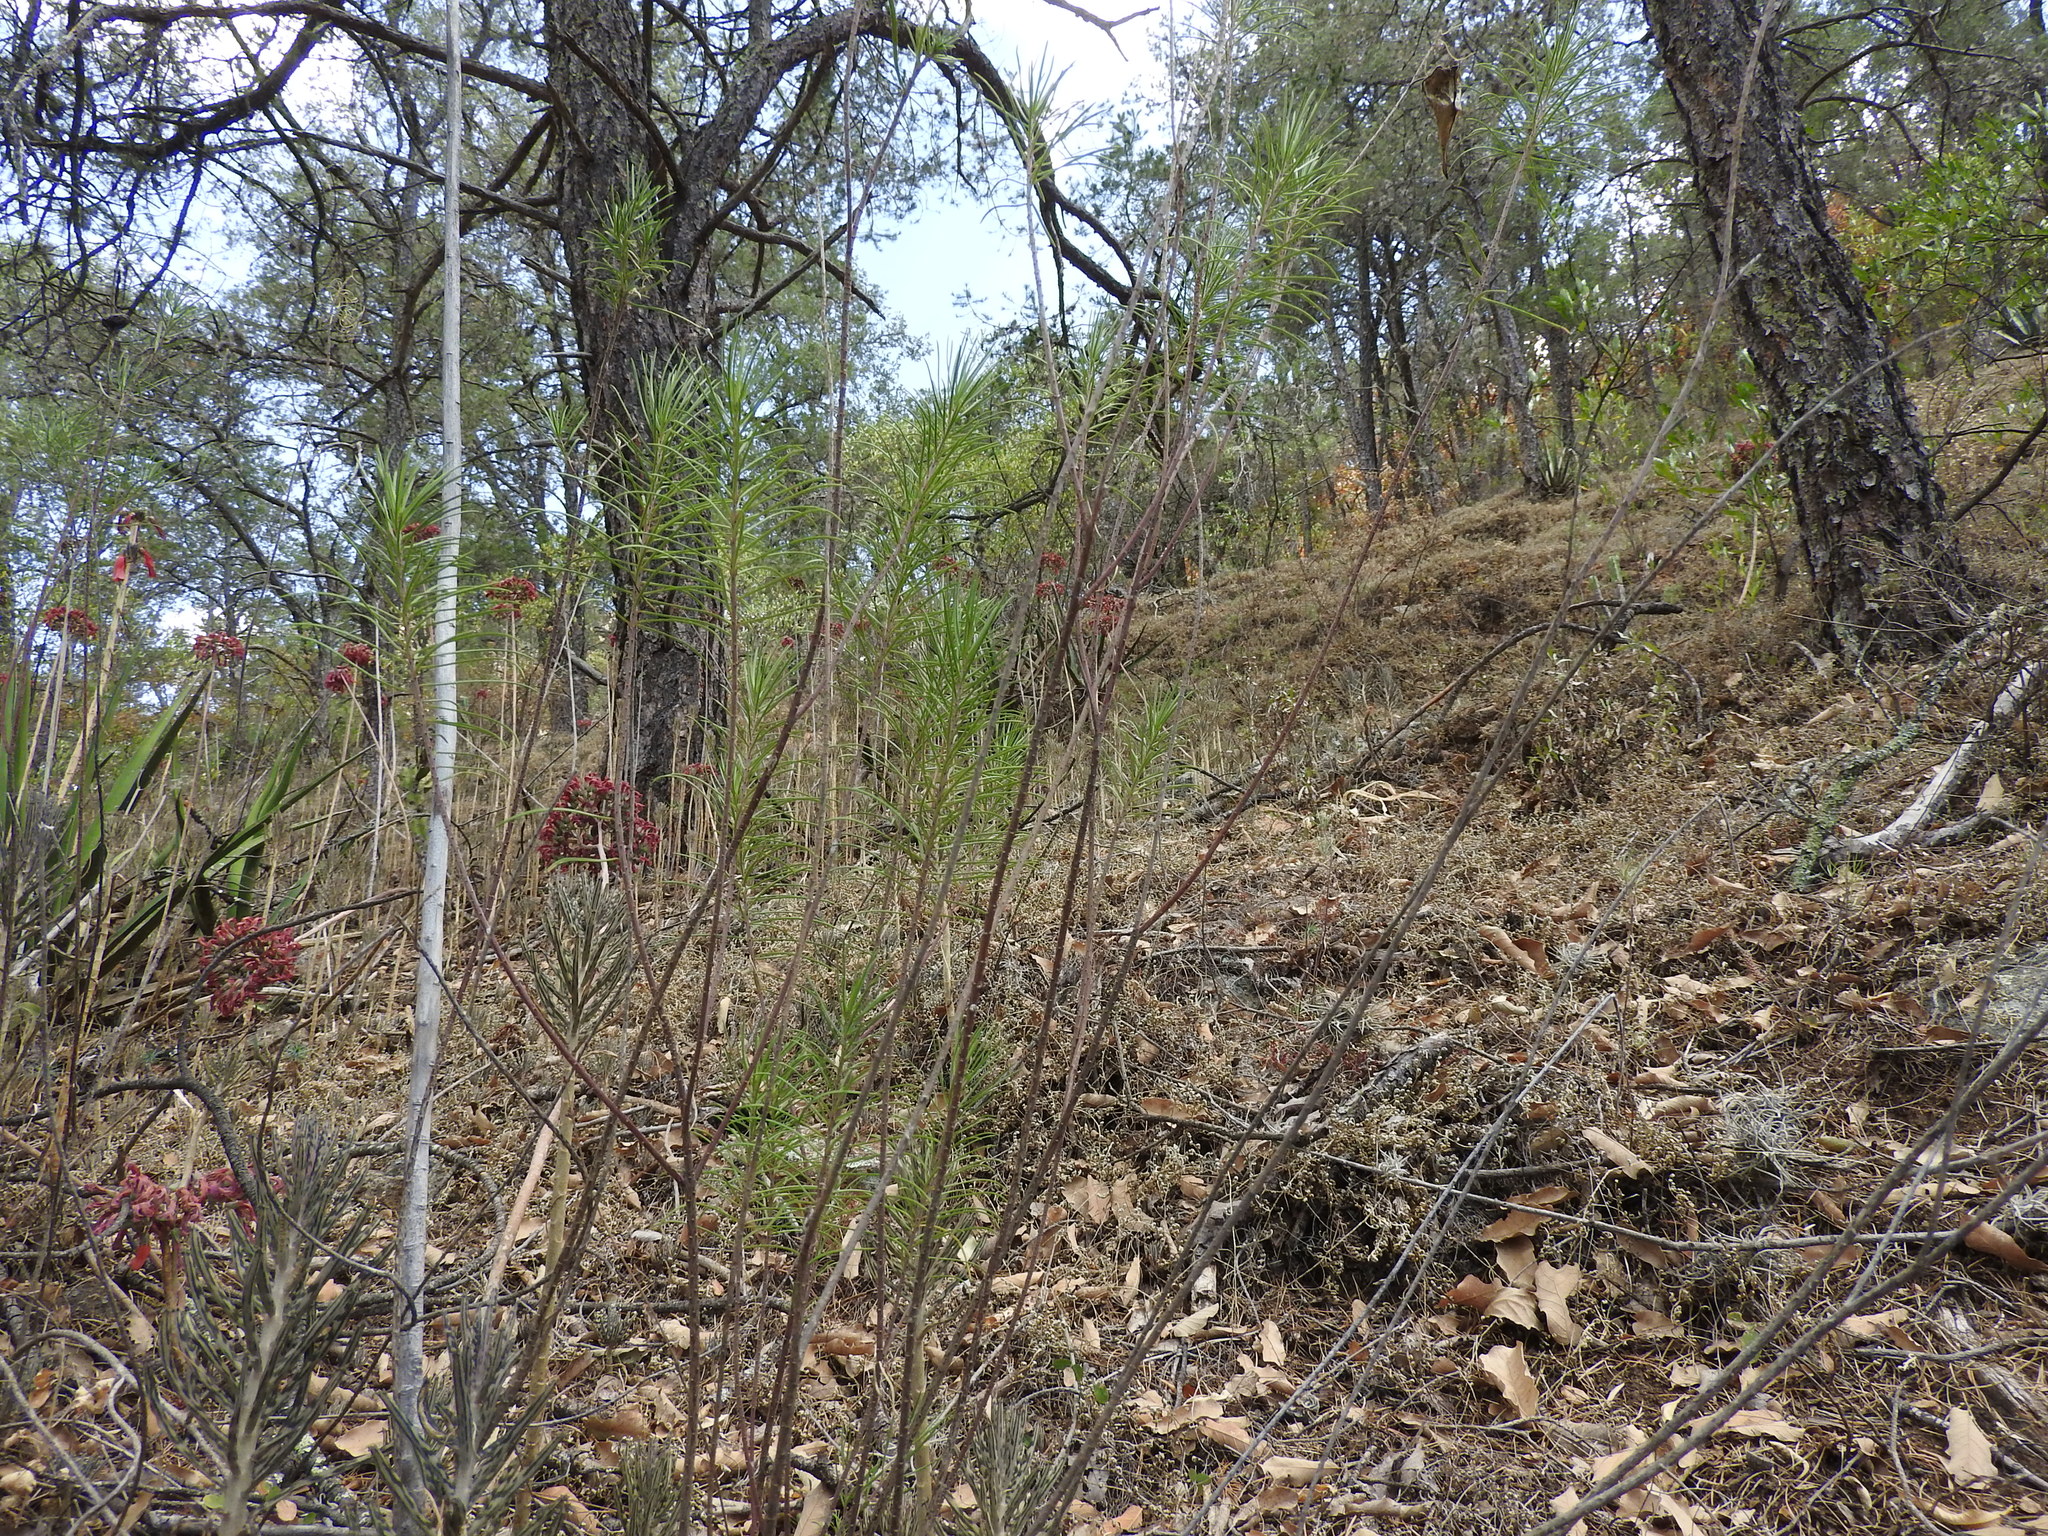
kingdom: Plantae
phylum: Tracheophyta
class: Magnoliopsida
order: Gentianales
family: Apocynaceae
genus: Asclepias
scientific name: Asclepias linaria
